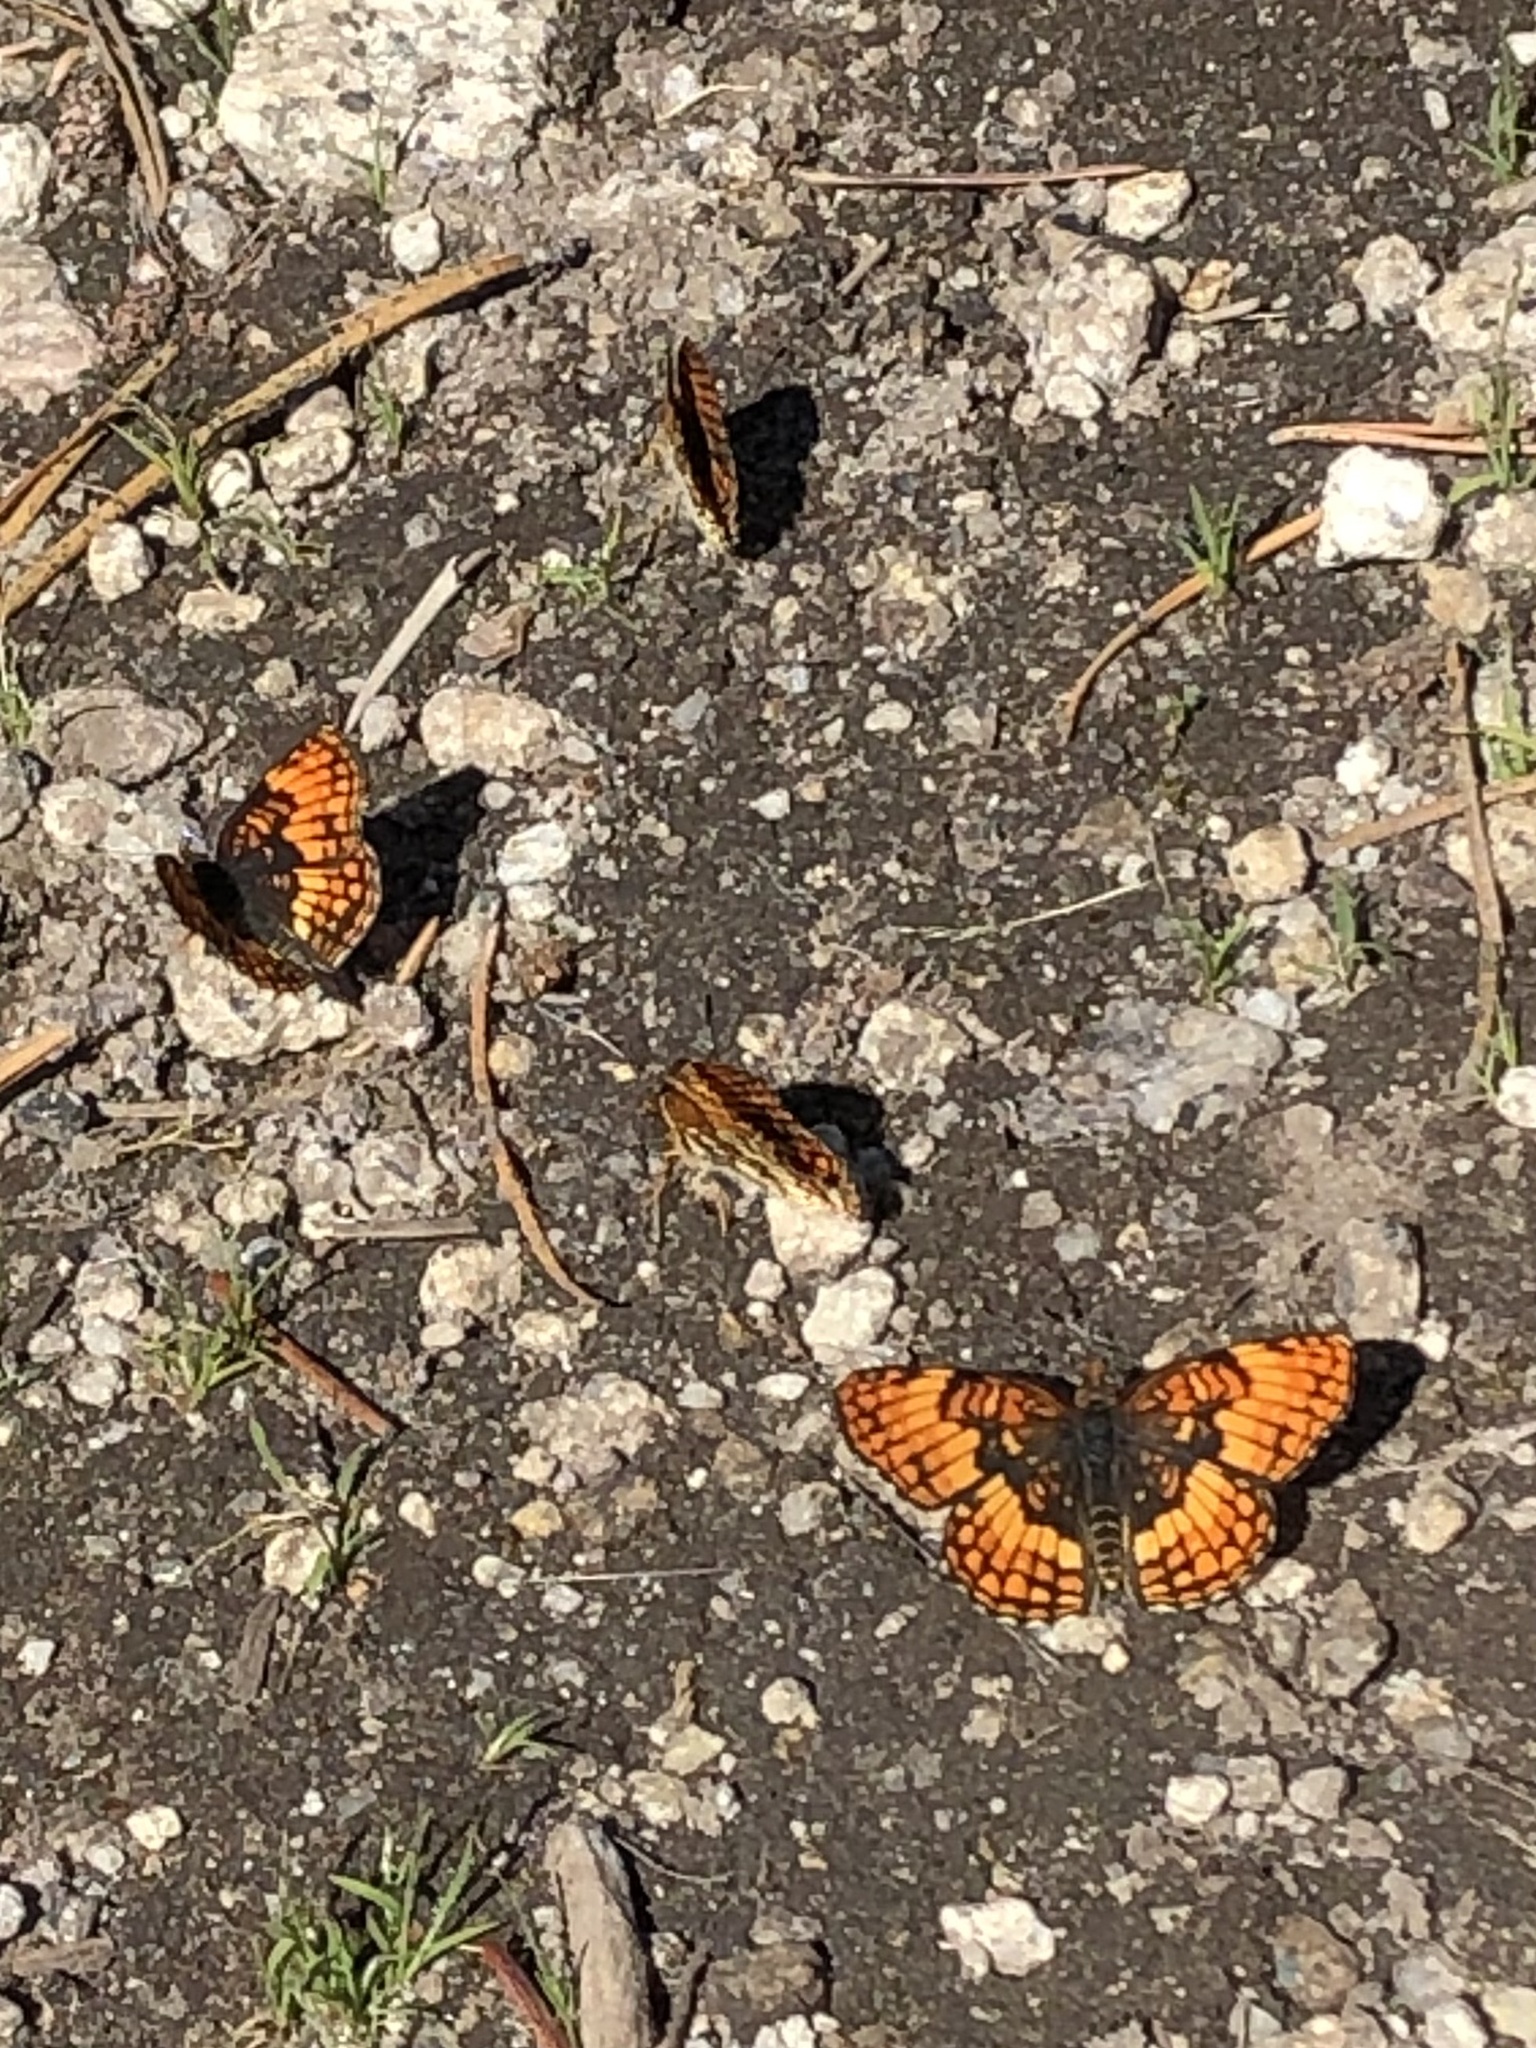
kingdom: Animalia
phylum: Arthropoda
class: Insecta
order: Lepidoptera
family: Nymphalidae
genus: Chlosyne
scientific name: Chlosyne hoffmanni
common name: Hoffmann's checkerspot
